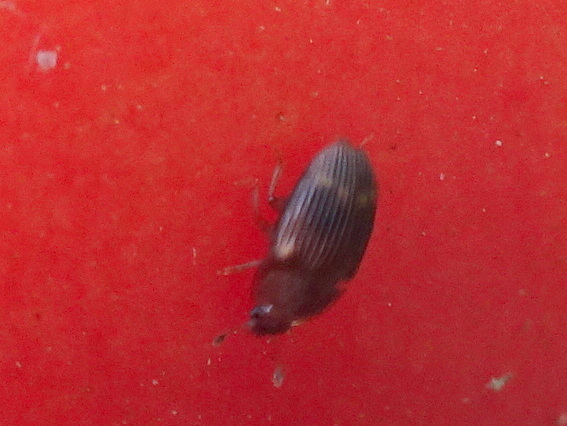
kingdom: Animalia
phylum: Arthropoda
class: Insecta
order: Coleoptera
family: Nitidulidae
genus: Stelidota
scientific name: Stelidota geminata
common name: Strawberry sap beetle
